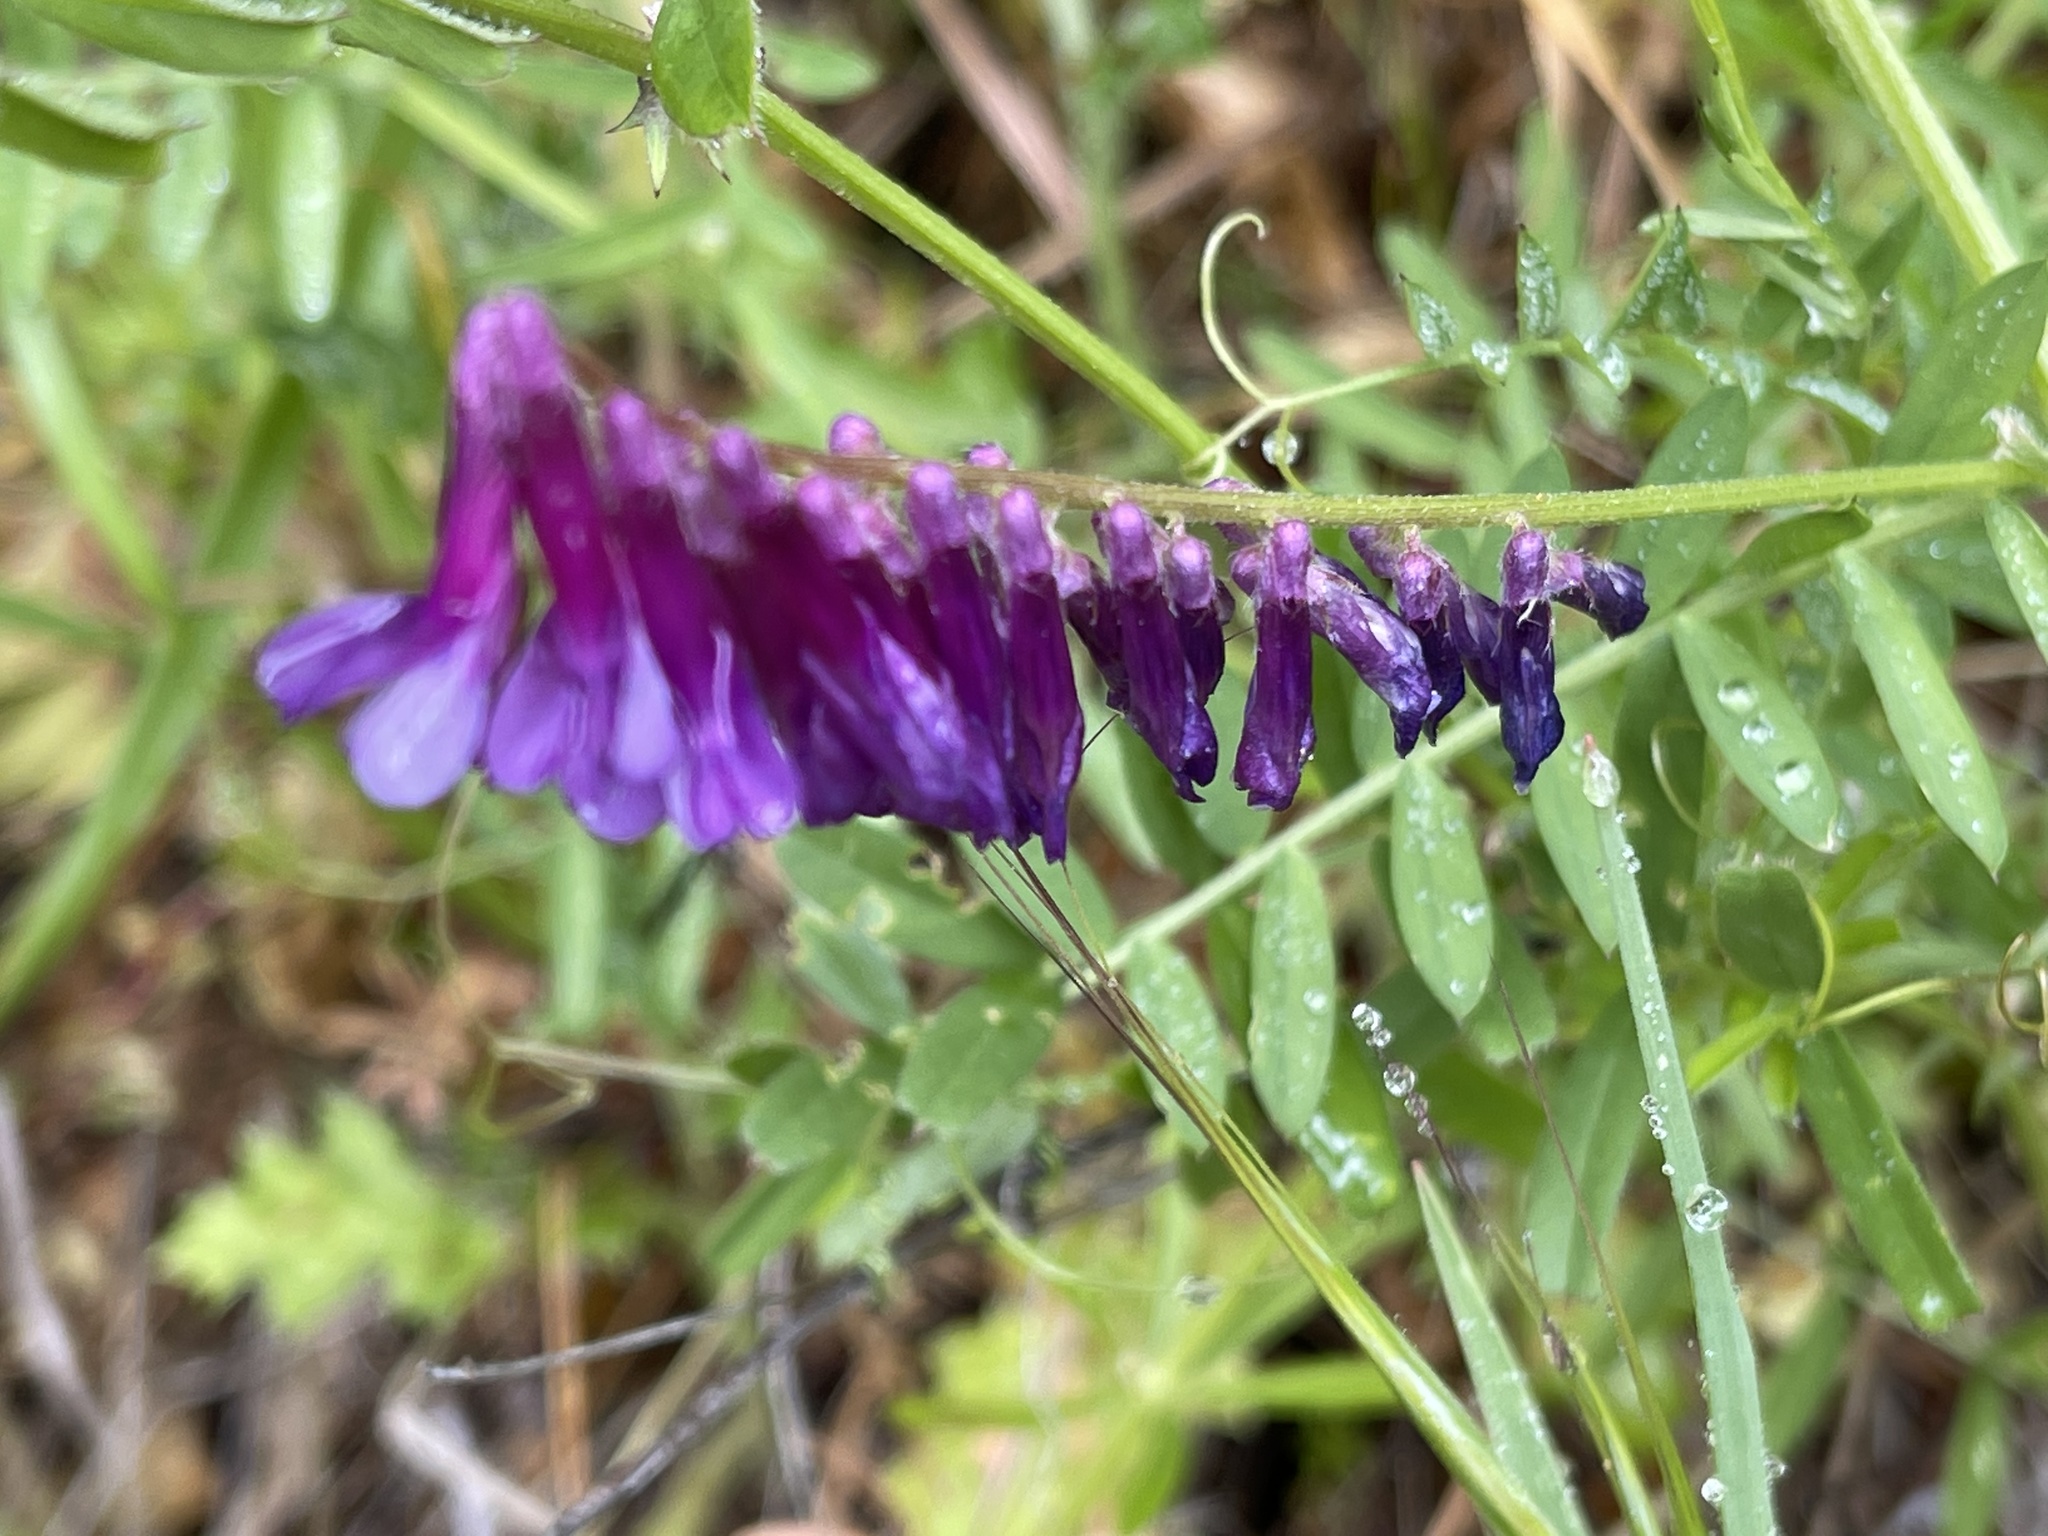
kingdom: Plantae
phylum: Tracheophyta
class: Magnoliopsida
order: Fabales
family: Fabaceae
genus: Vicia
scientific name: Vicia villosa
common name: Fodder vetch
